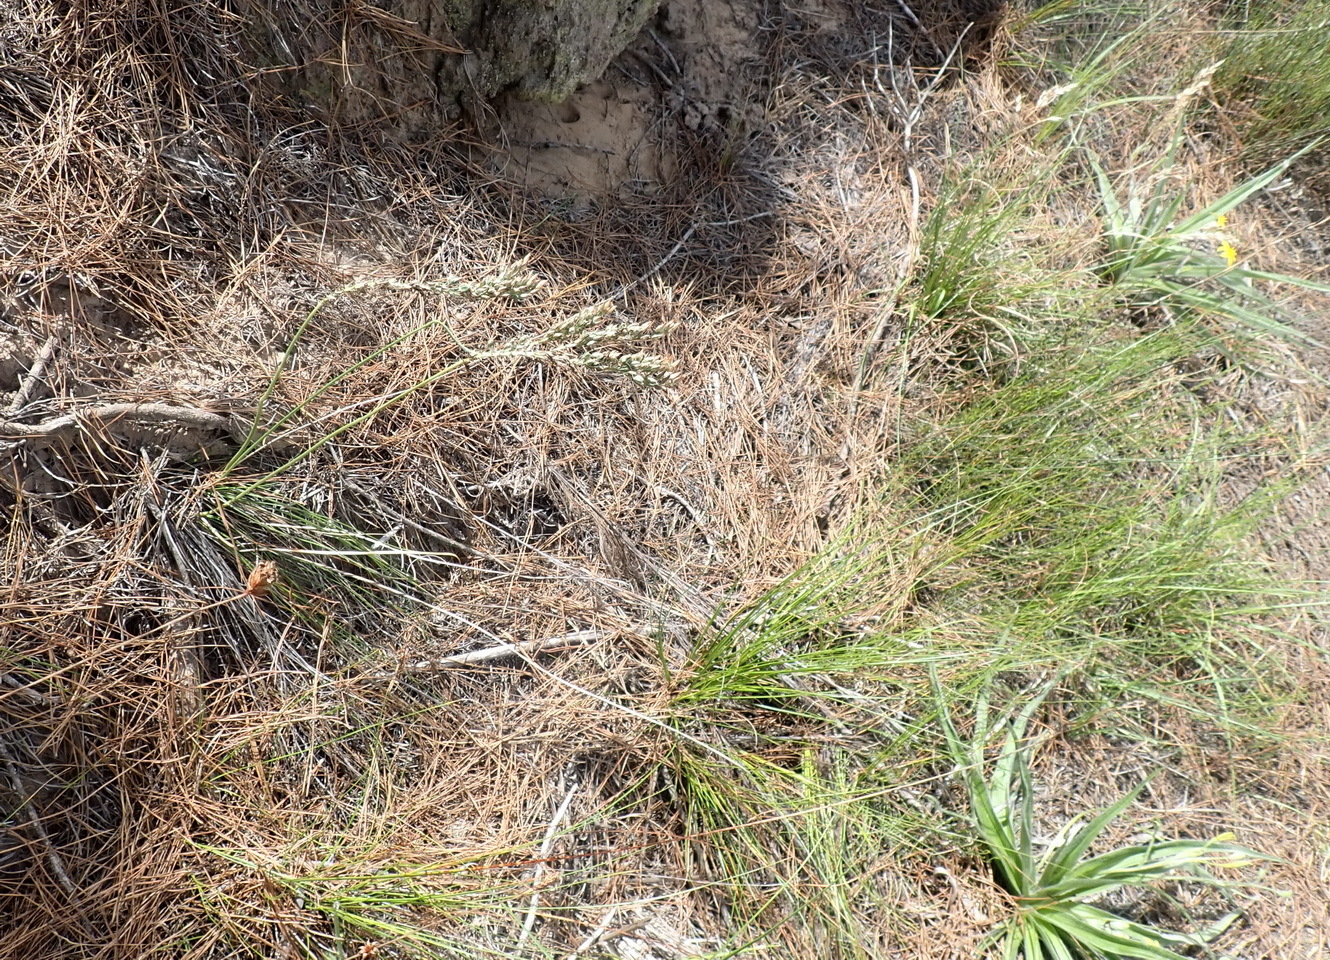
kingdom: Plantae
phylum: Tracheophyta
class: Liliopsida
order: Asparagales
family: Asparagaceae
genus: Ornithogalum
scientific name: Ornithogalum graminifolium
